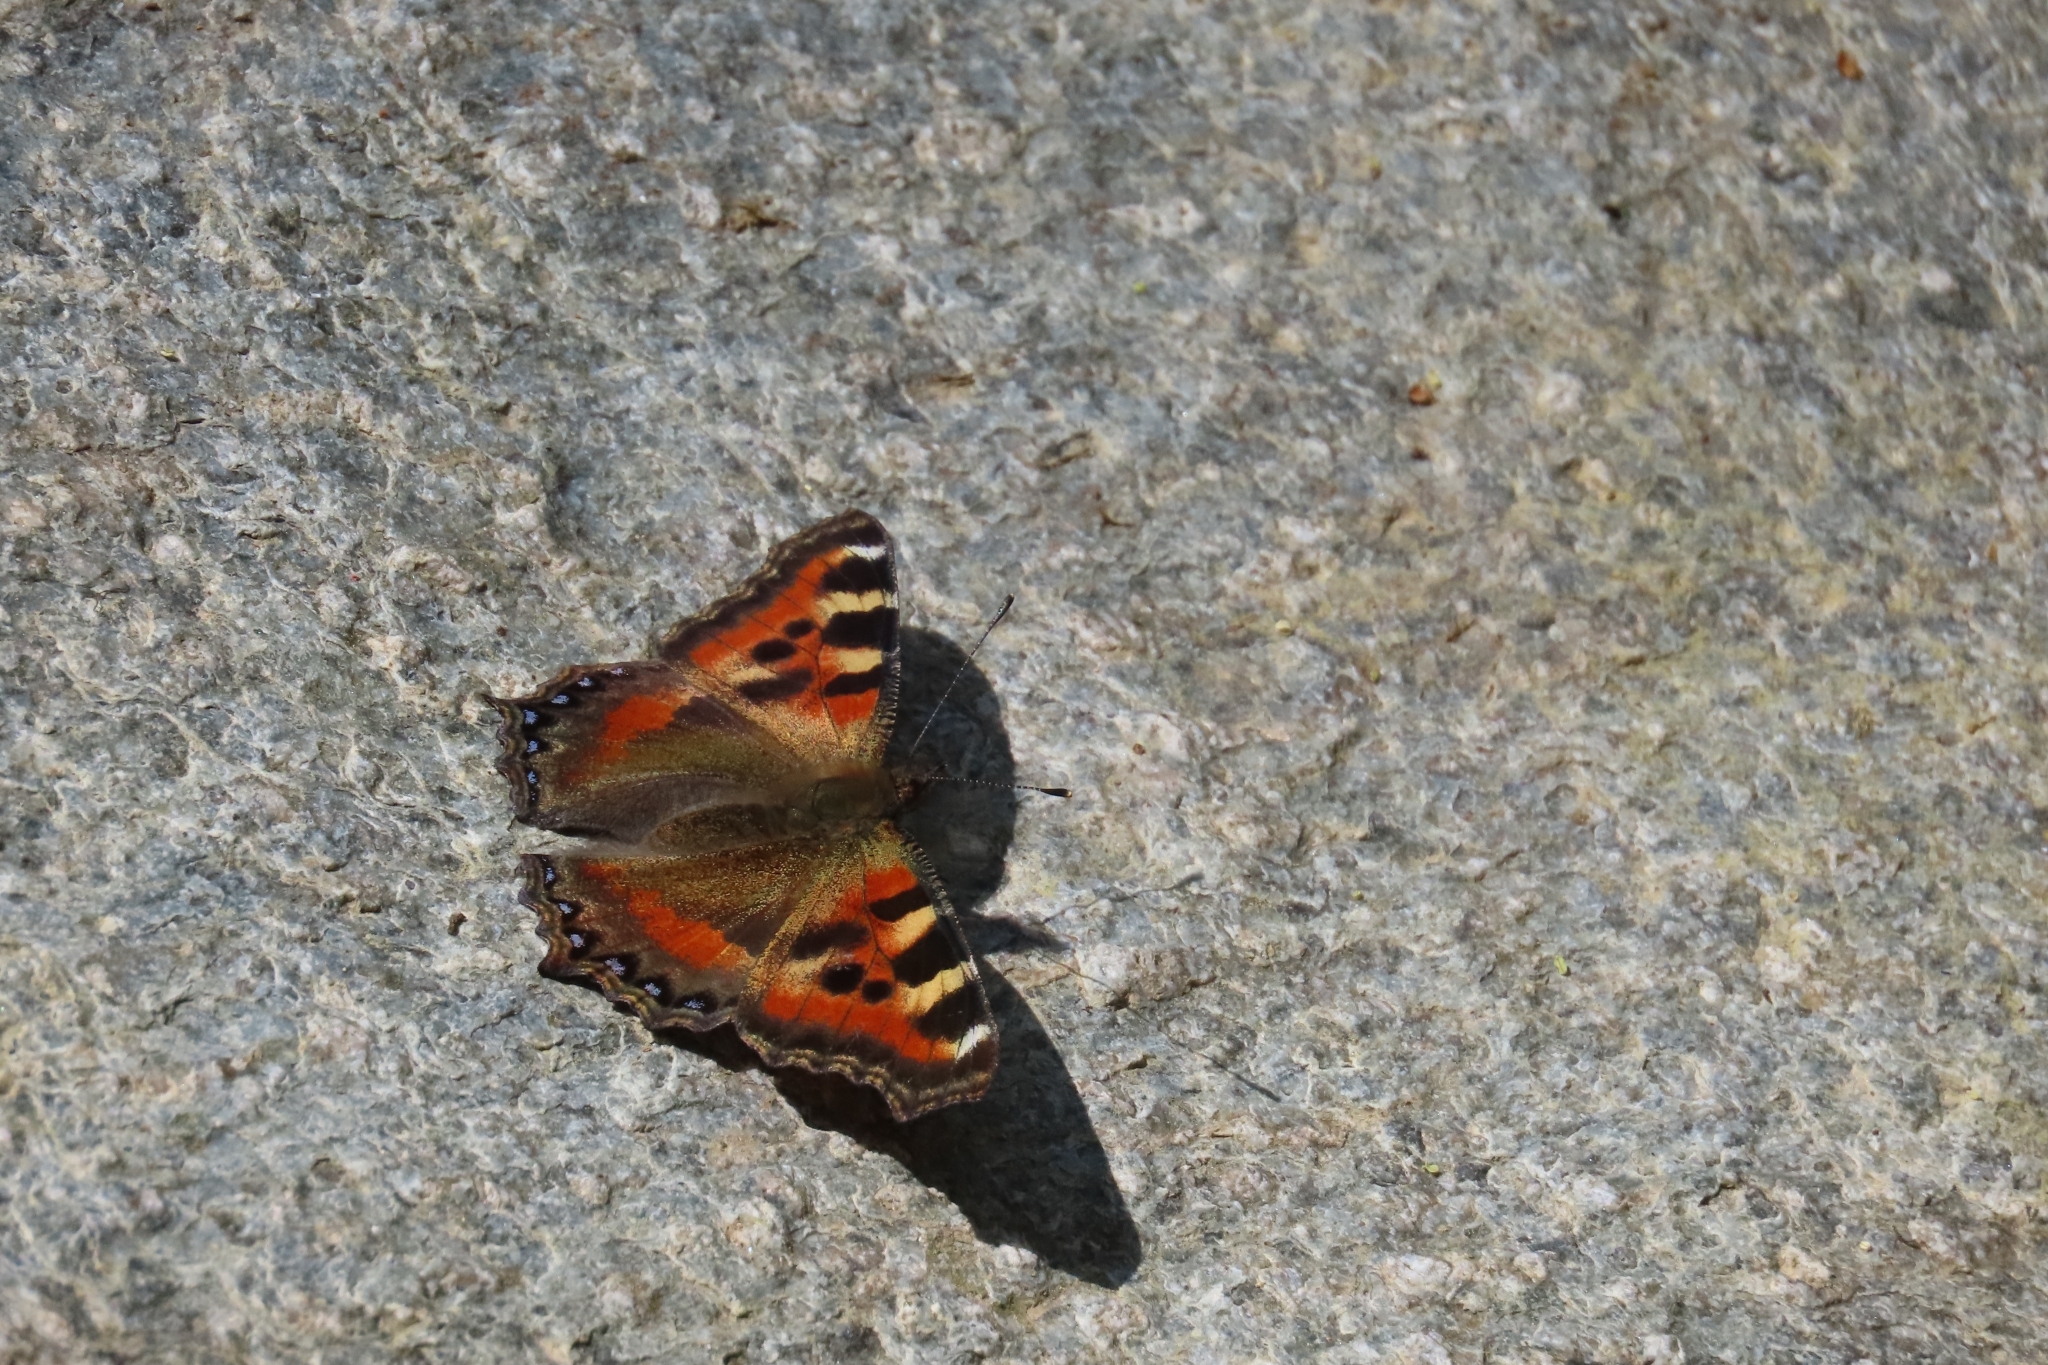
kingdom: Animalia
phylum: Arthropoda
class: Insecta
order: Lepidoptera
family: Nymphalidae
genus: Aglais
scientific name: Aglais caschmirensis
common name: Indian tortoiseshell
